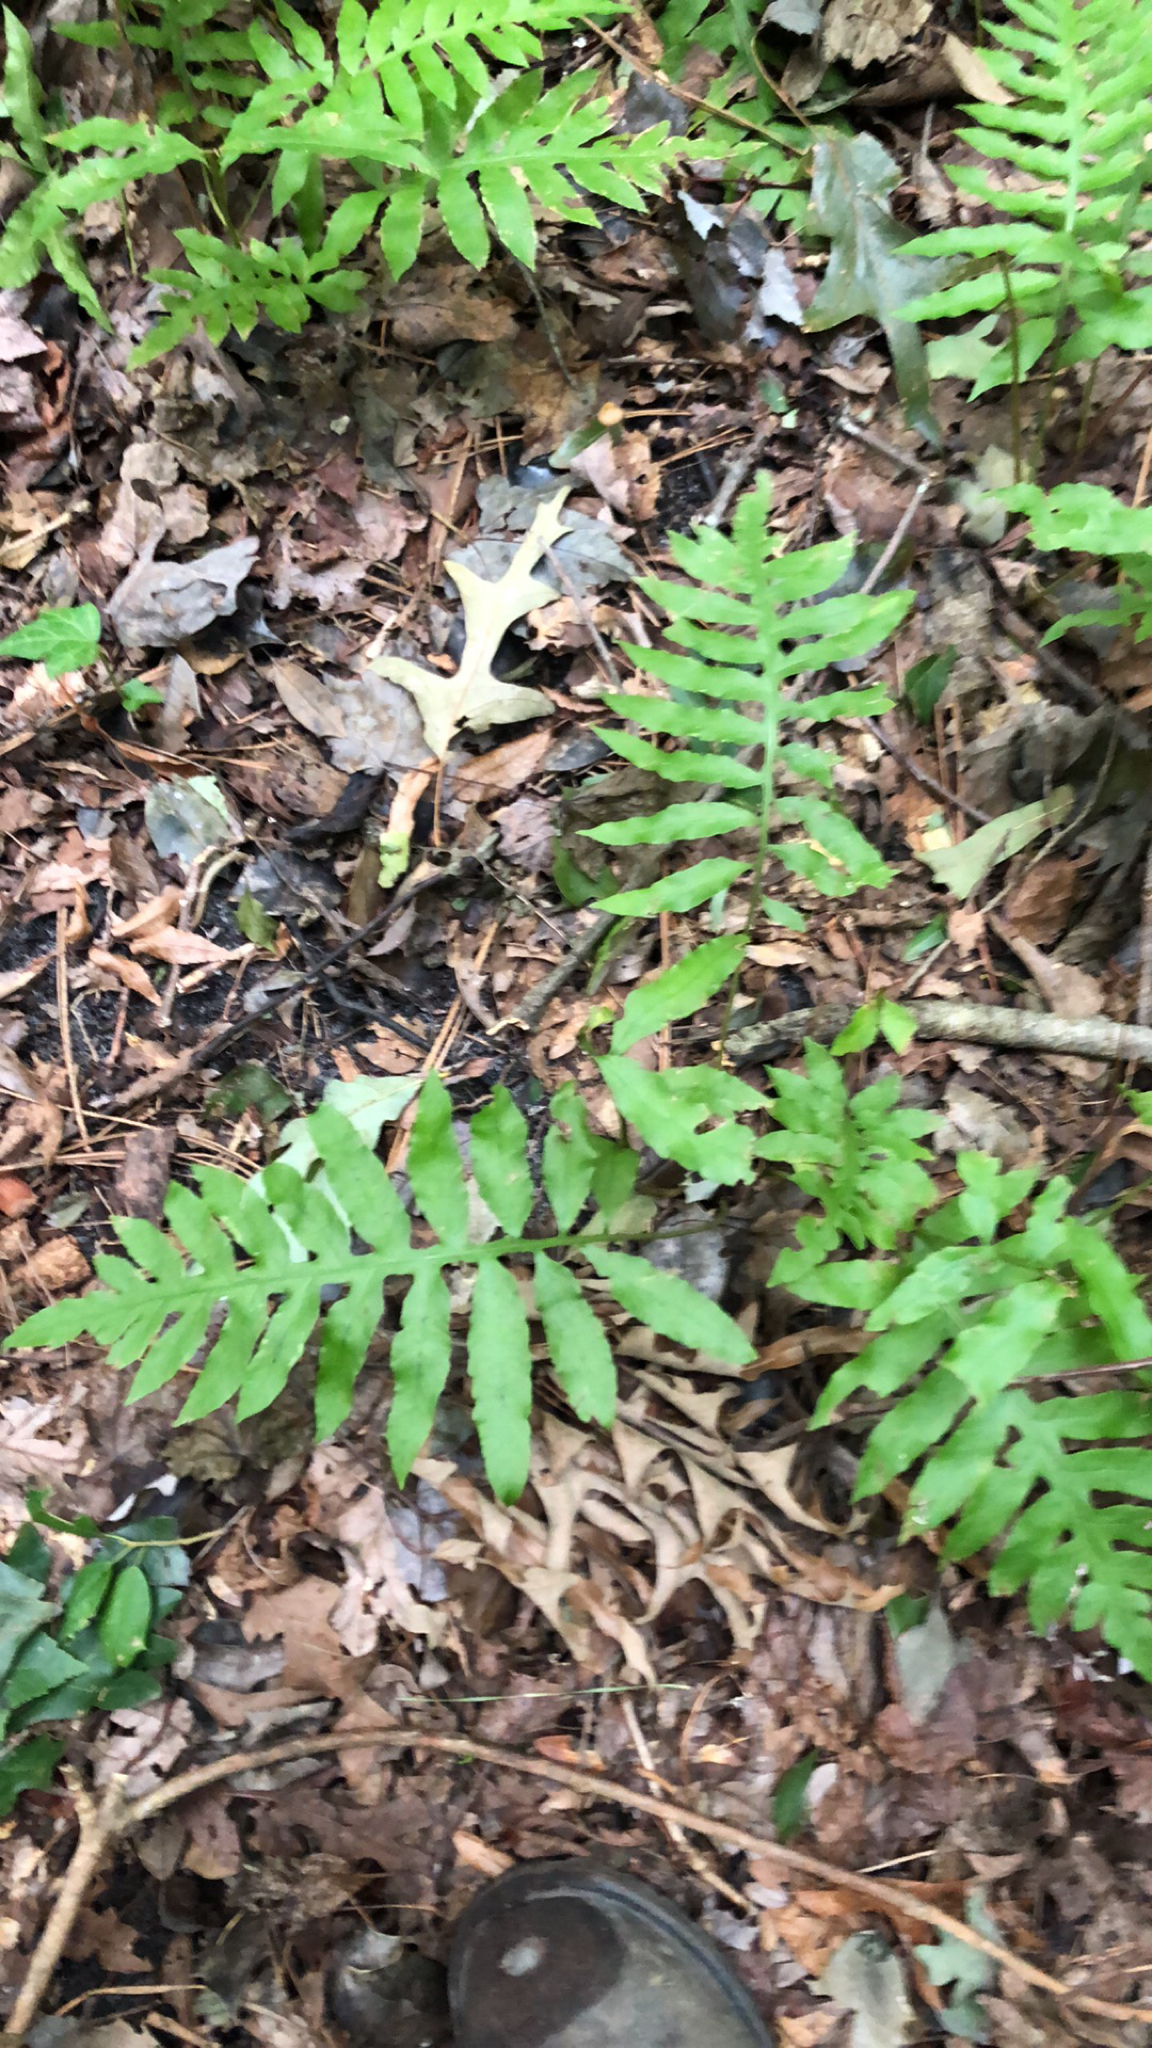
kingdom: Plantae
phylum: Tracheophyta
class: Polypodiopsida
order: Polypodiales
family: Blechnaceae
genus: Lorinseria
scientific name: Lorinseria areolata
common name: Dwarf chain fern
